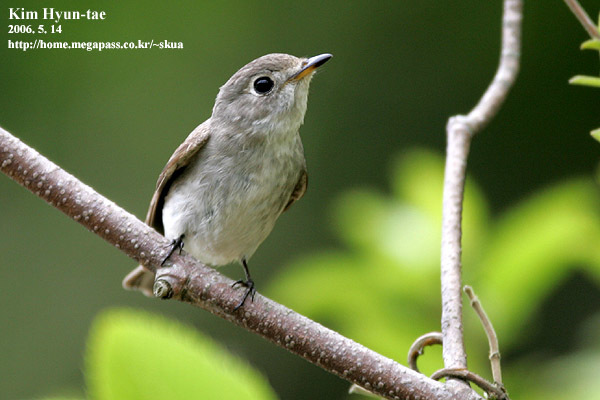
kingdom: Animalia
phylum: Chordata
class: Aves
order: Passeriformes
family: Muscicapidae
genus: Muscicapa
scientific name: Muscicapa latirostris
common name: Asian brown flycatcher
